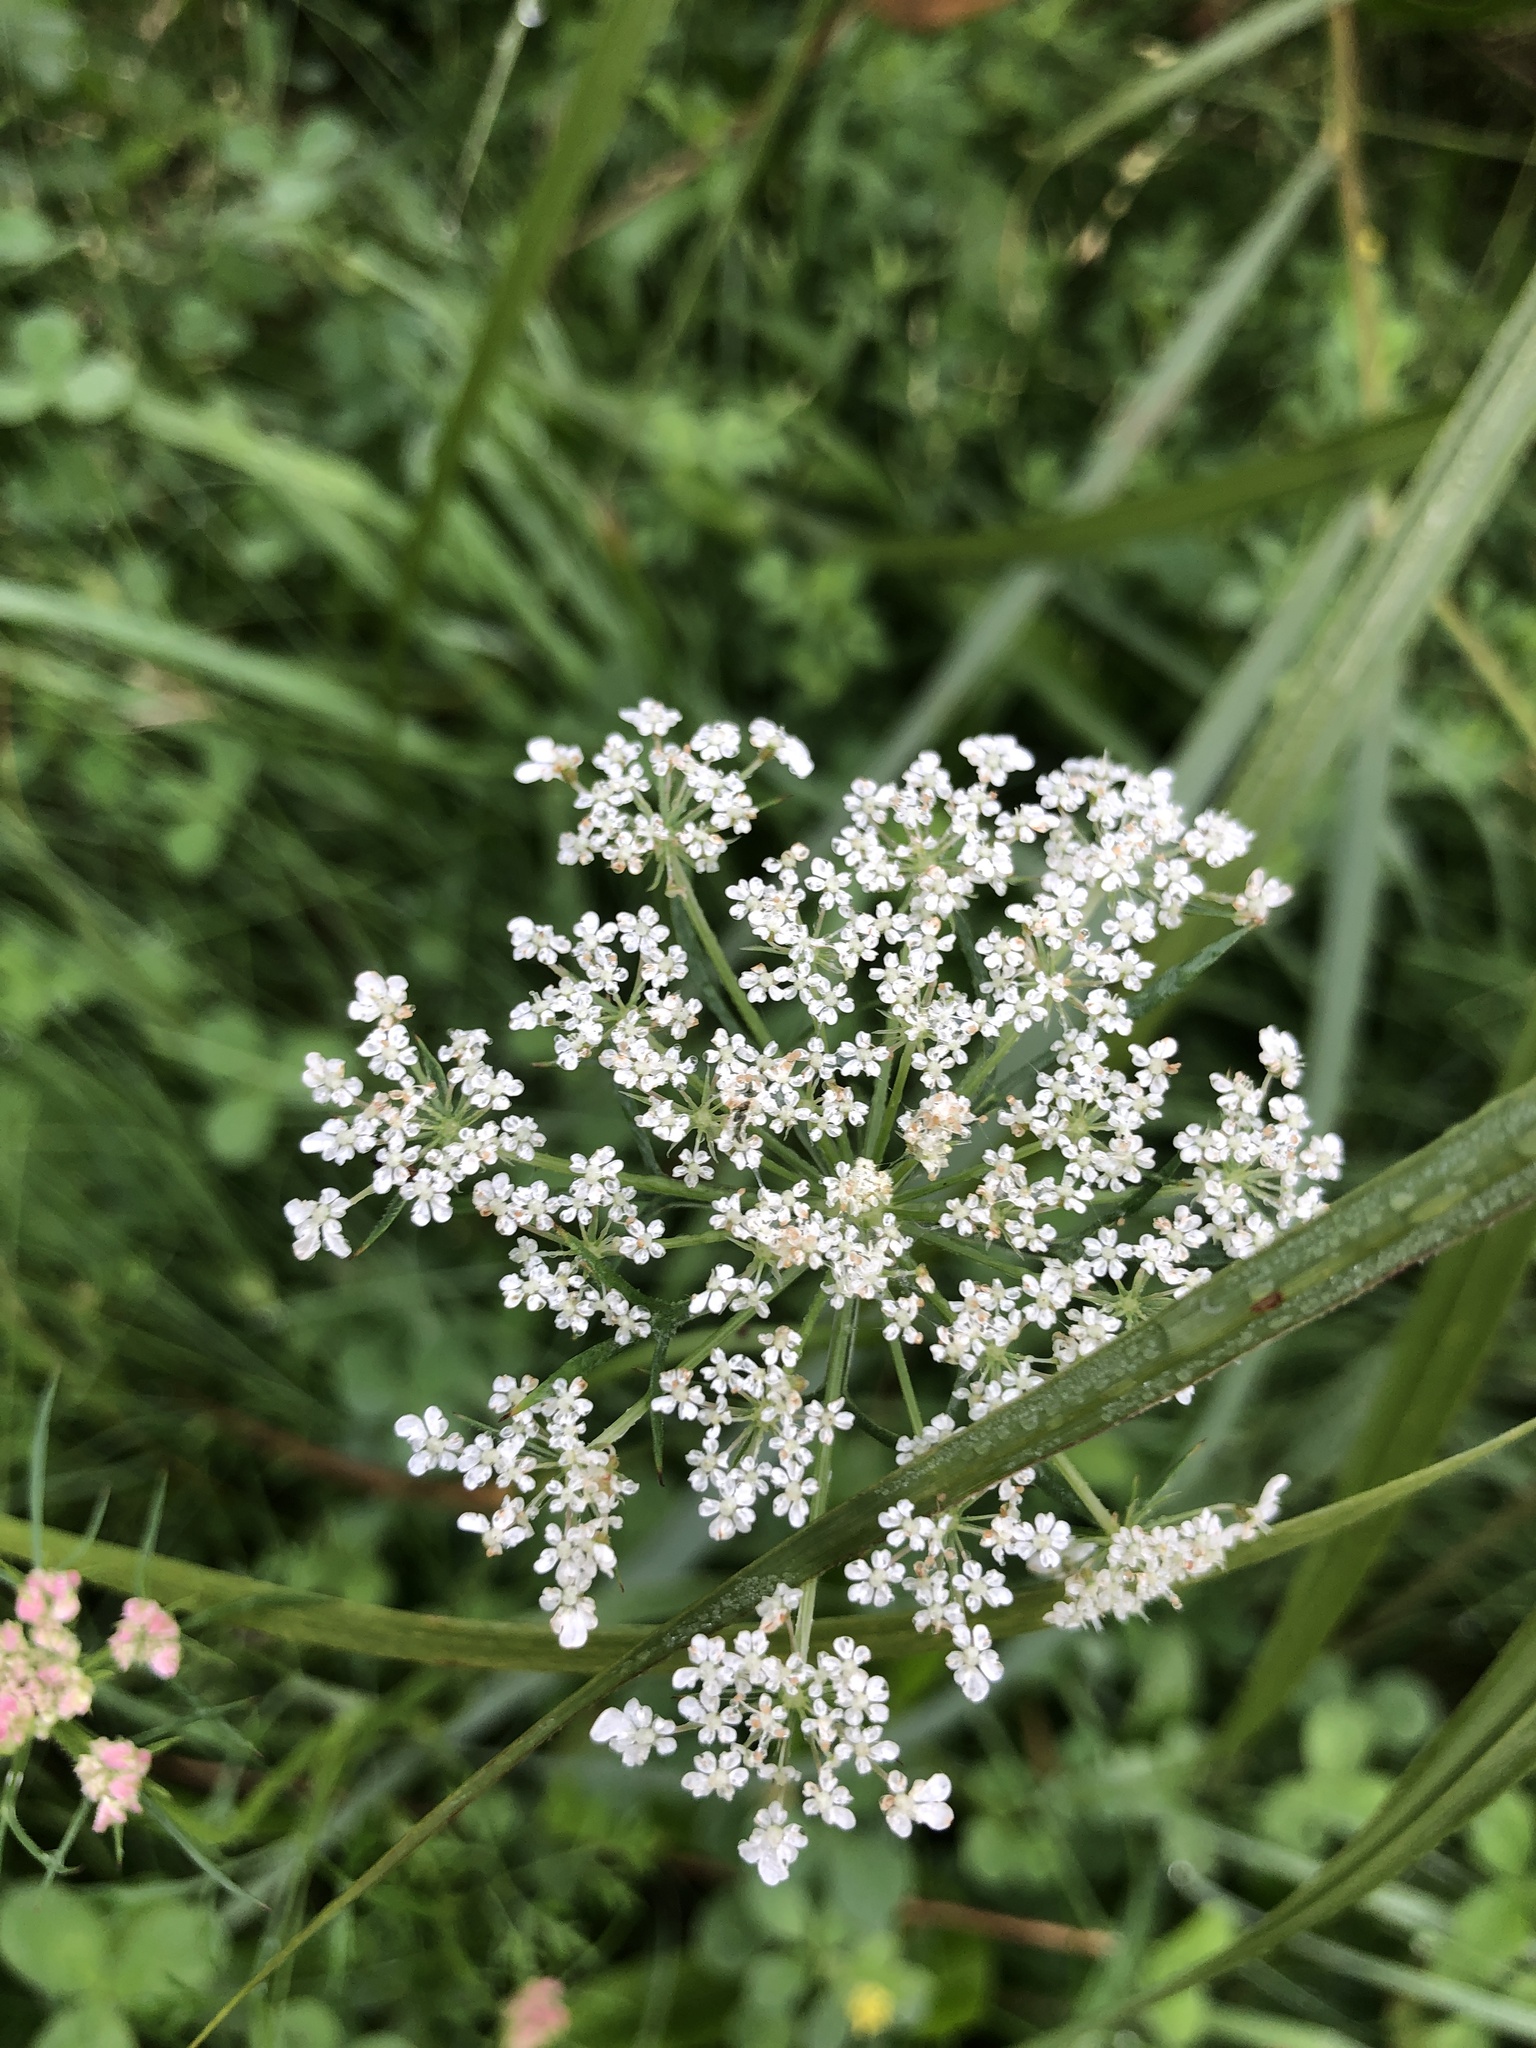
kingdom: Plantae
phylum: Tracheophyta
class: Magnoliopsida
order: Apiales
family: Apiaceae
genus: Daucus
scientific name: Daucus carota
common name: Wild carrot
